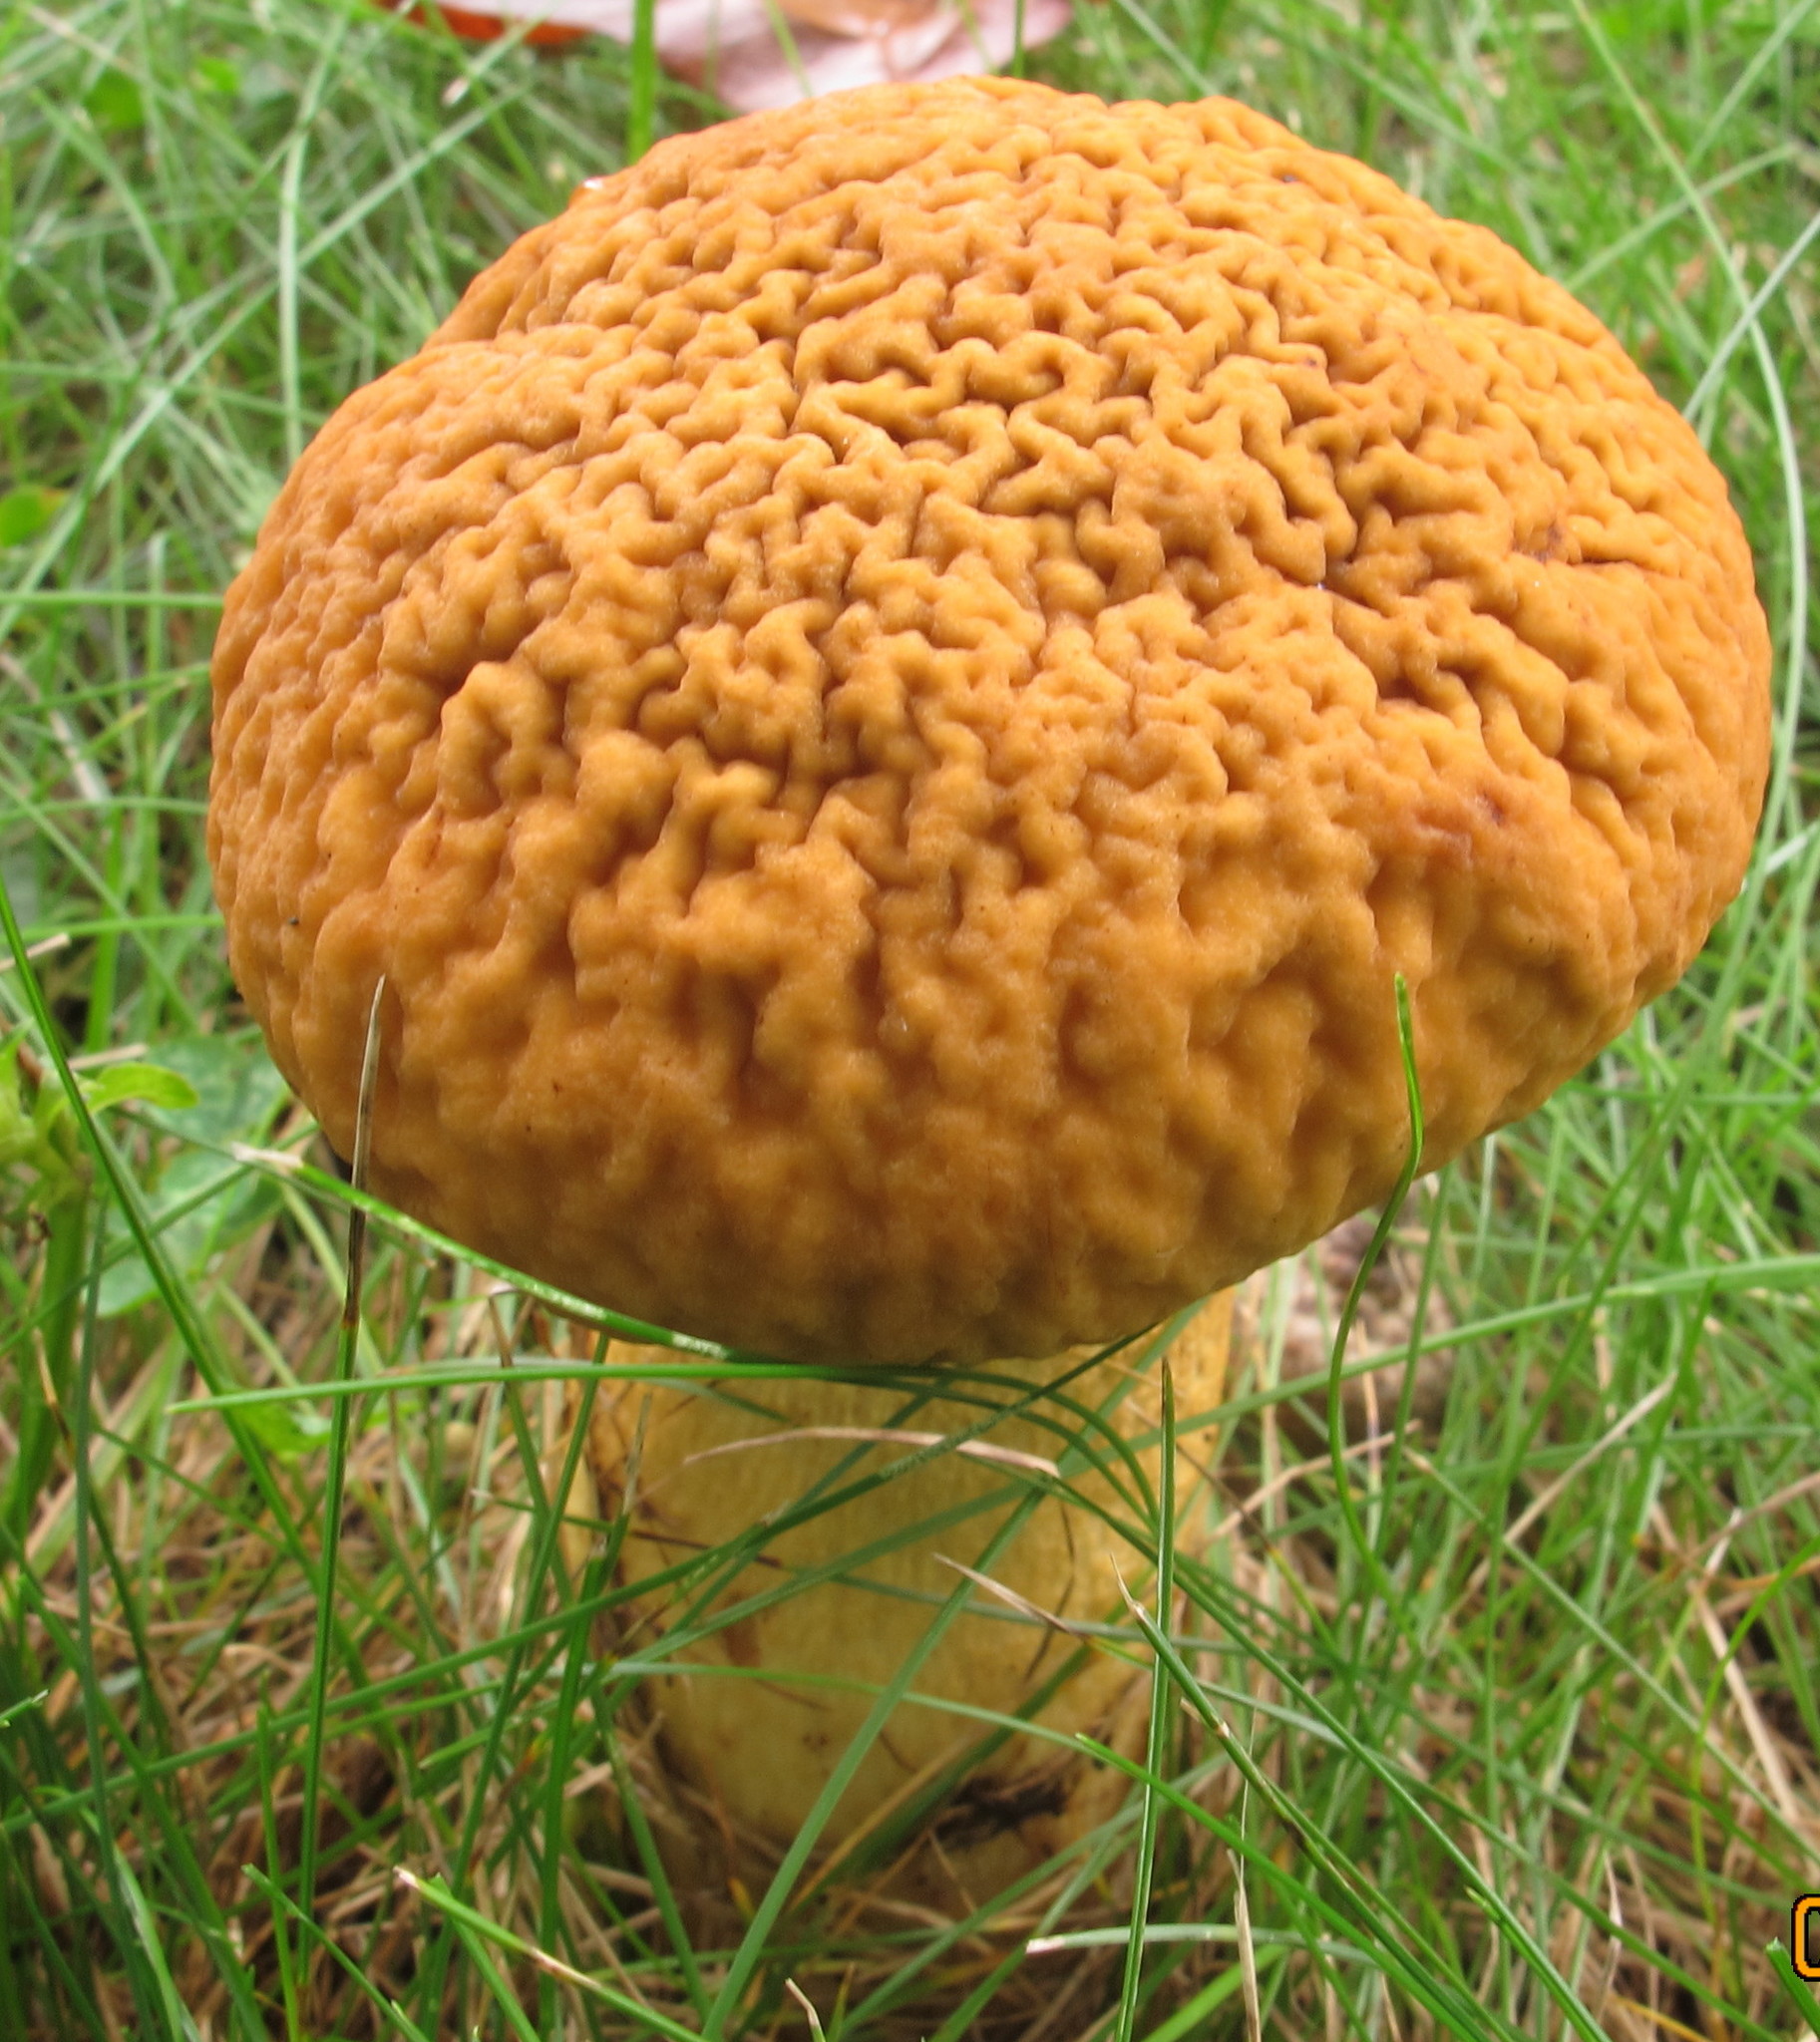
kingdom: Fungi
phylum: Basidiomycota
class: Agaricomycetes
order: Boletales
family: Boletaceae
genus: Leccinellum
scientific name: Leccinellum rugosiceps
